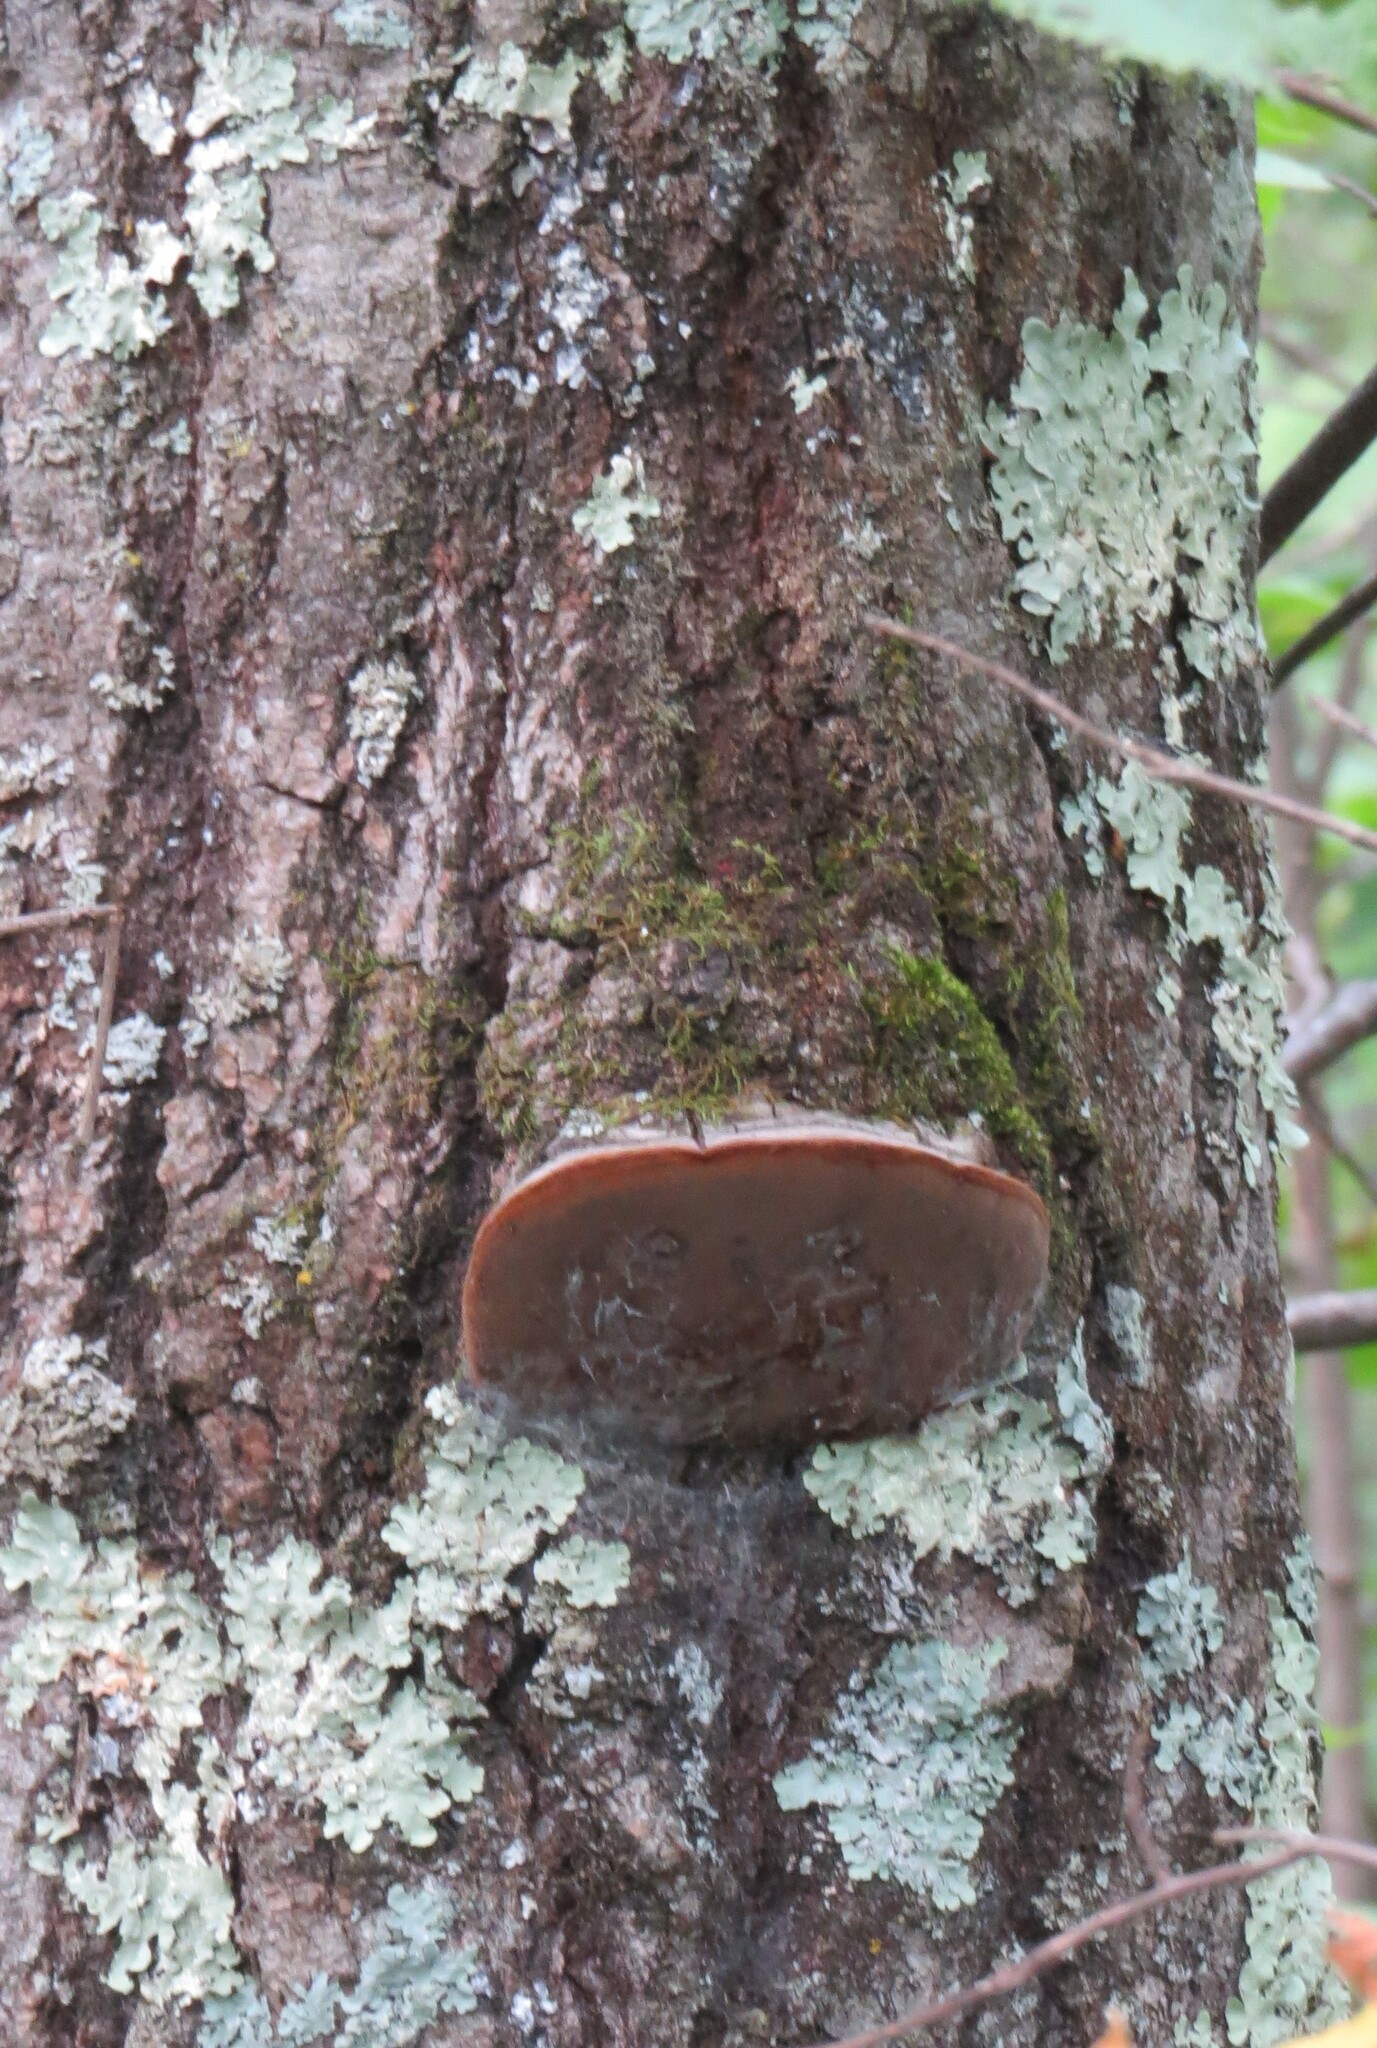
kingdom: Fungi
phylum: Basidiomycota
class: Agaricomycetes
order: Hymenochaetales
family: Hymenochaetaceae
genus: Phellinus
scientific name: Phellinus tremulae
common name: Aspen bracket
